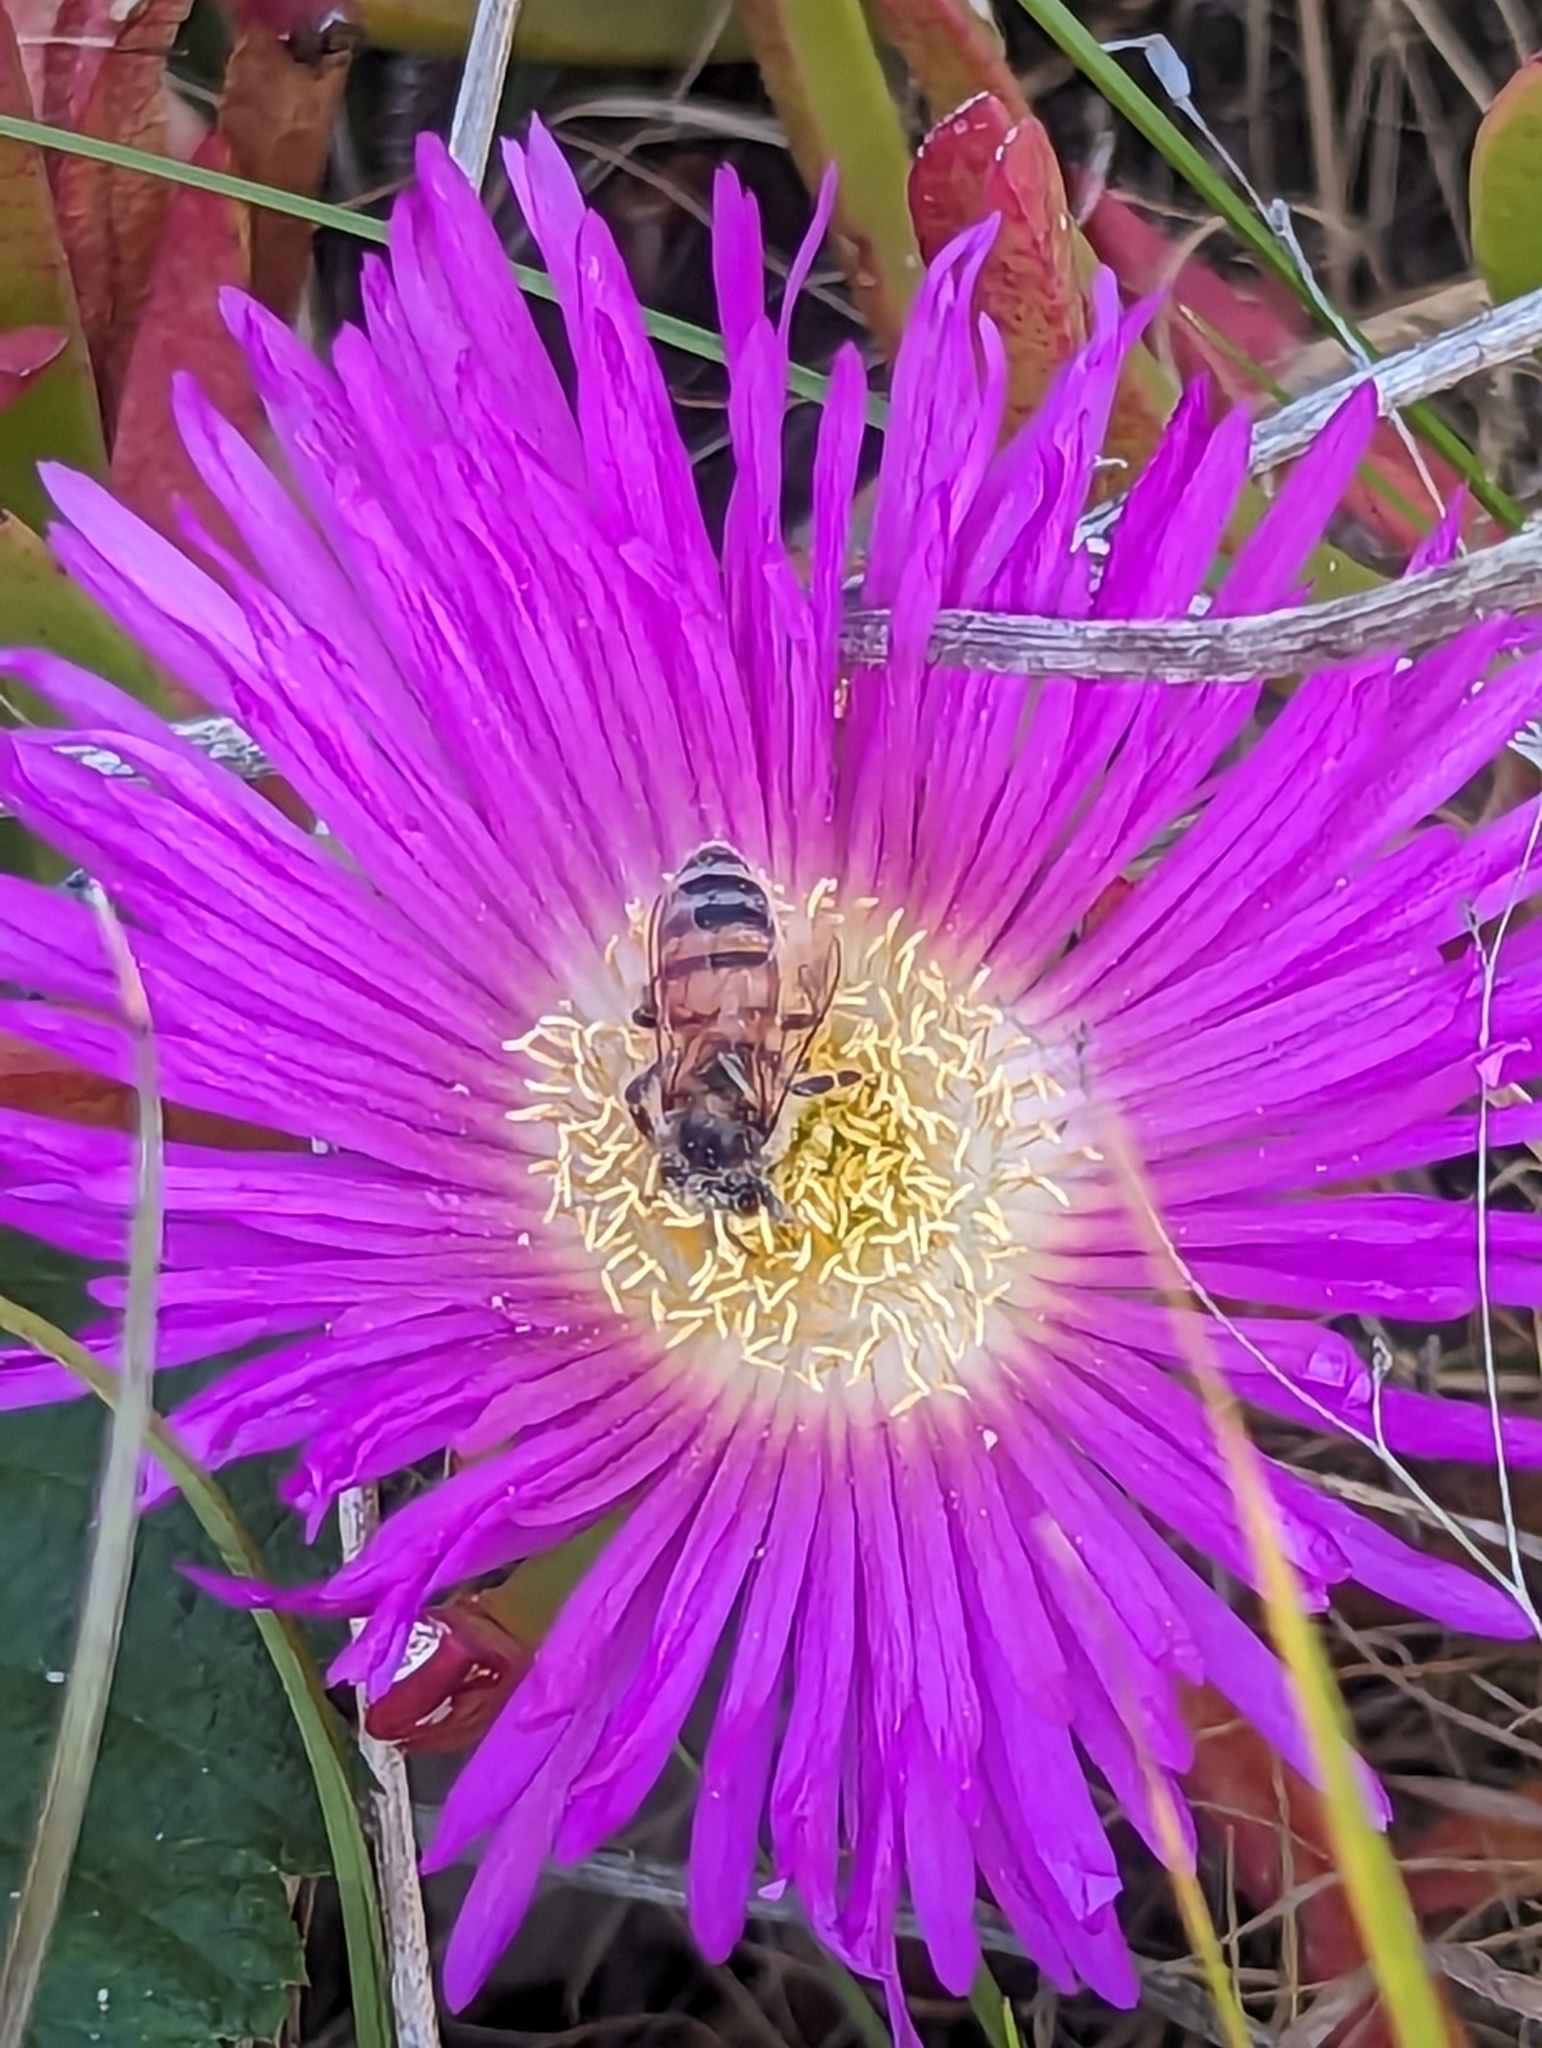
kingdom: Animalia
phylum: Arthropoda
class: Insecta
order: Hymenoptera
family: Apidae
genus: Apis
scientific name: Apis mellifera
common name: Honey bee
